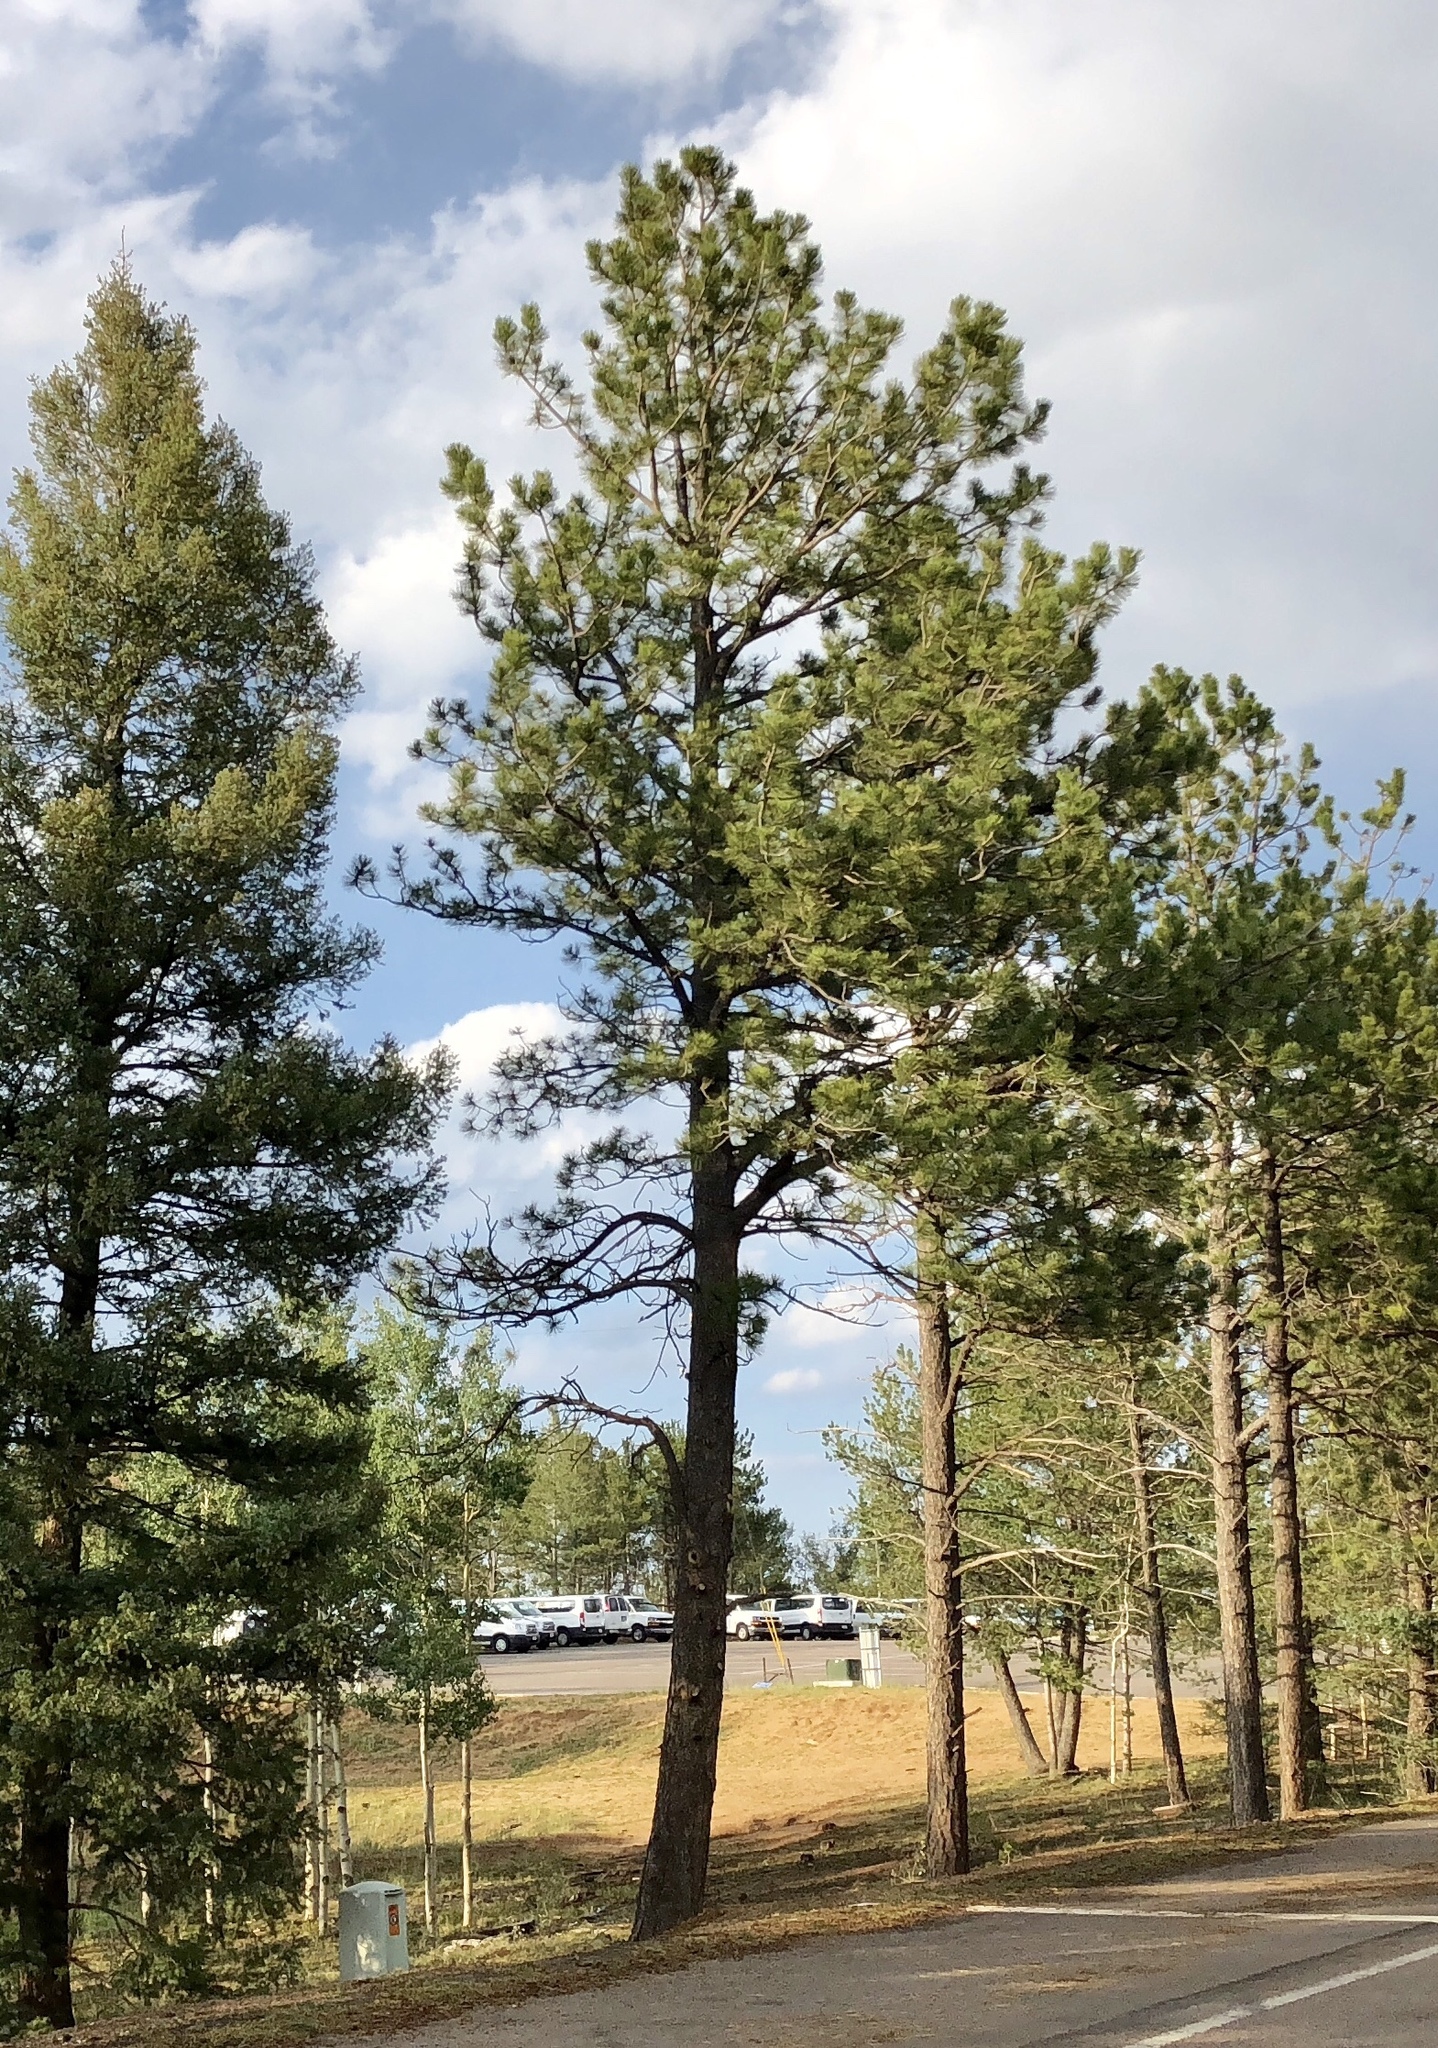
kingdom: Plantae
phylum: Tracheophyta
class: Pinopsida
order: Pinales
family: Pinaceae
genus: Pinus
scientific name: Pinus ponderosa
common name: Western yellow-pine
